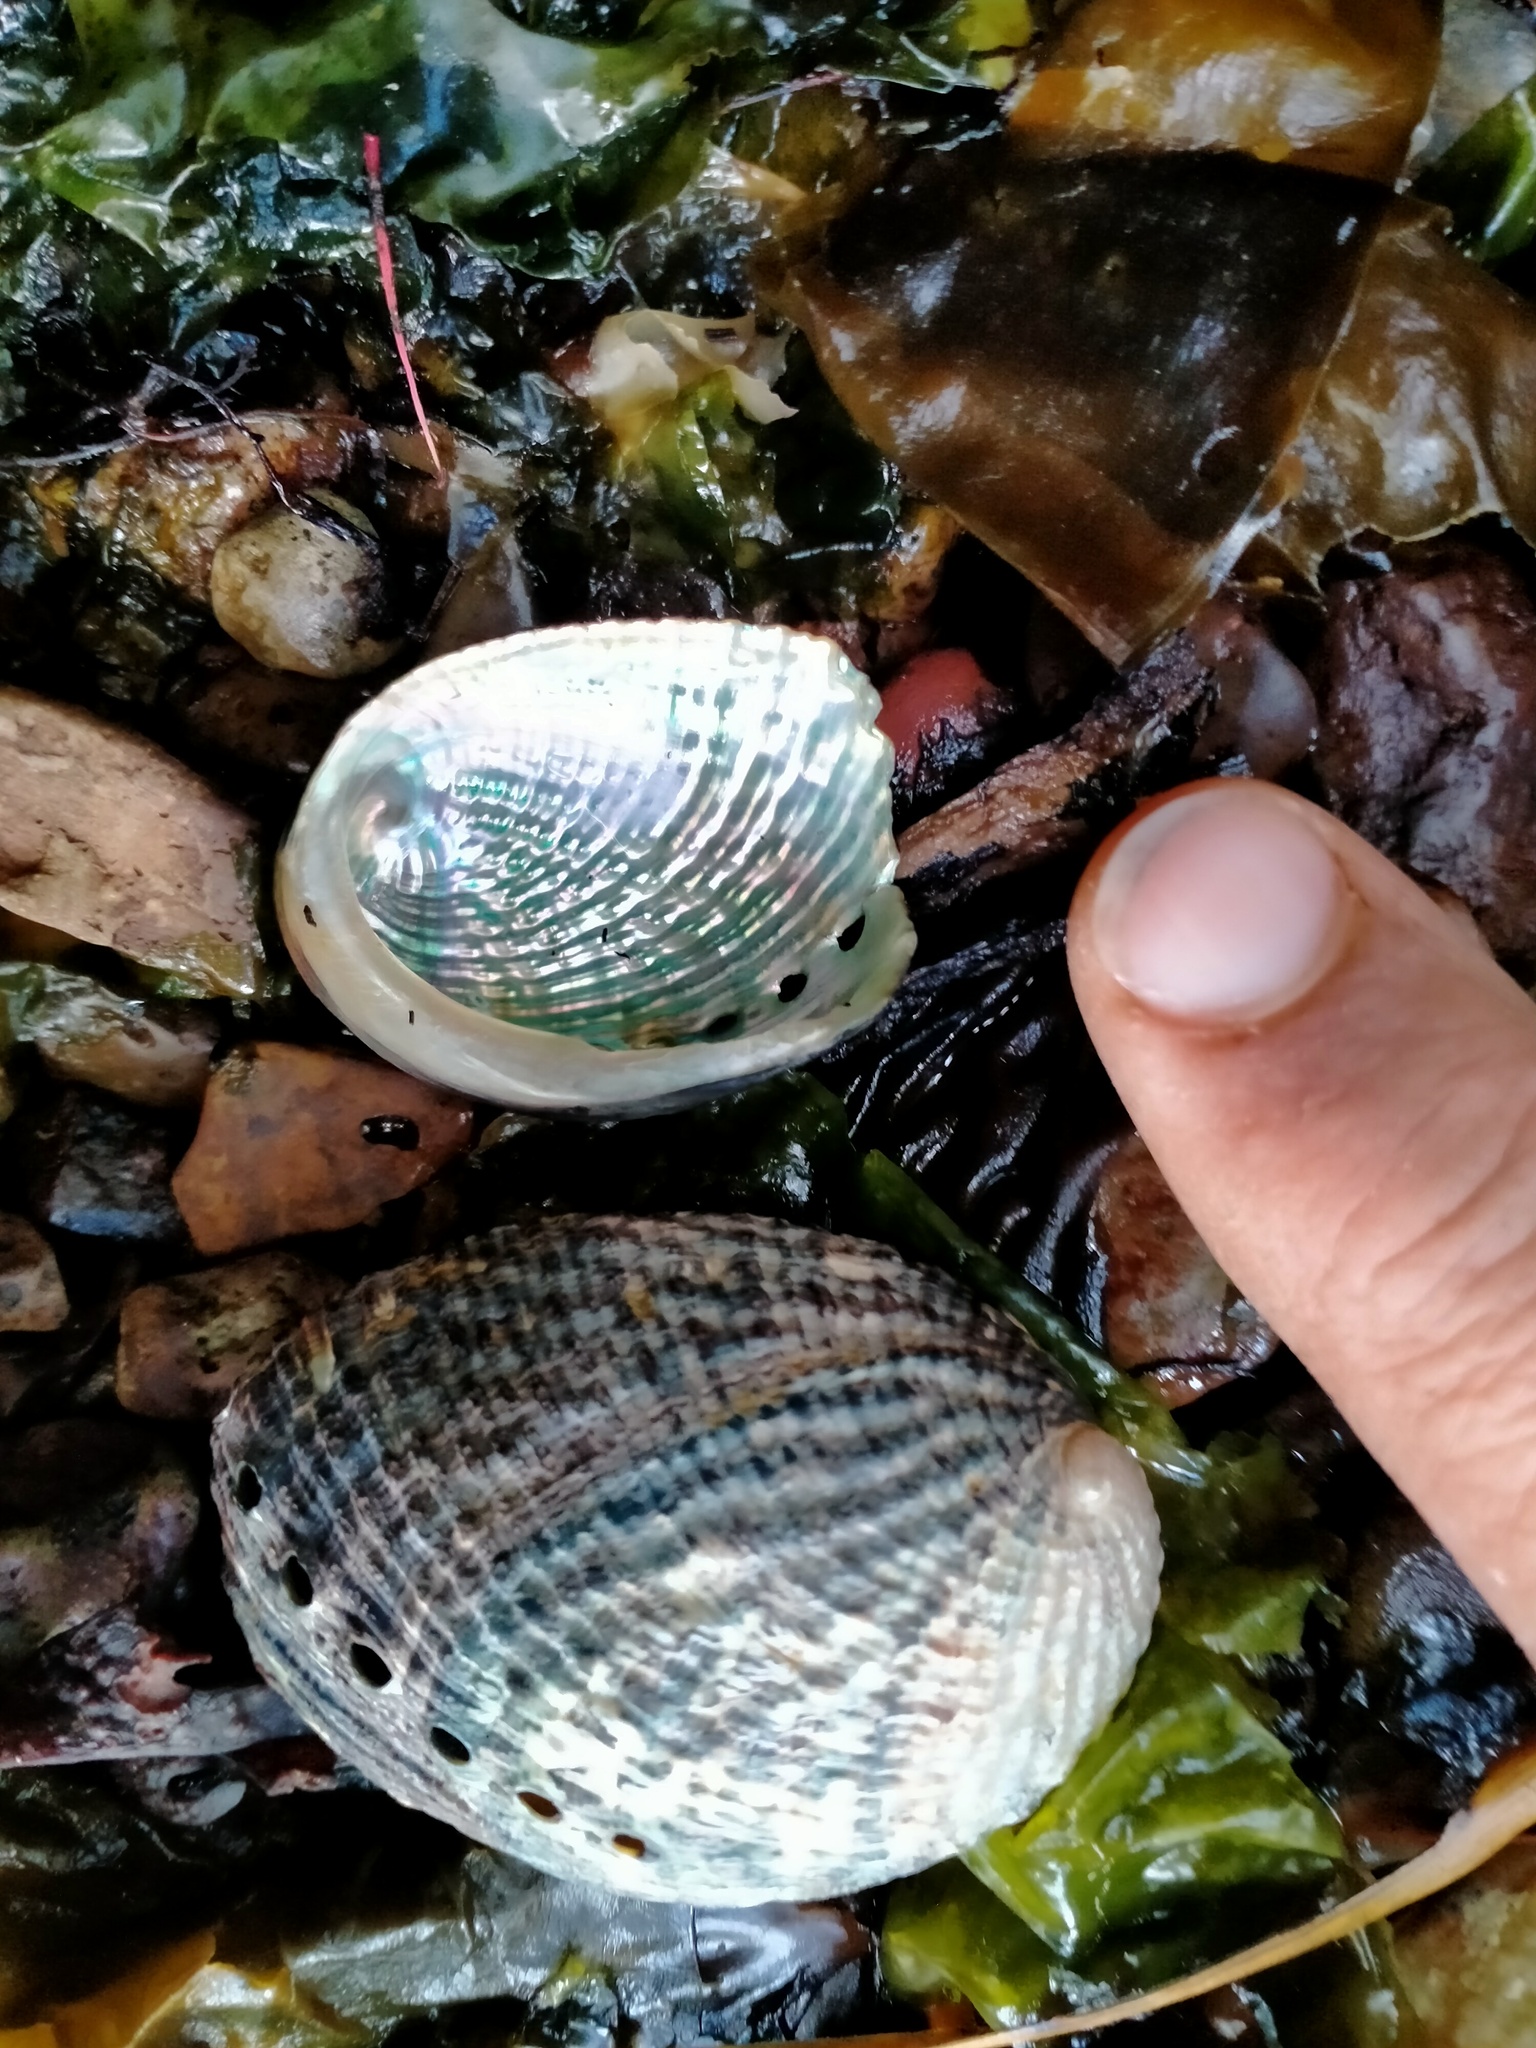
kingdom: Animalia
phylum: Mollusca
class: Gastropoda
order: Lepetellida
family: Haliotidae
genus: Haliotis
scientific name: Haliotis virginea
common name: Whitefoot paua
